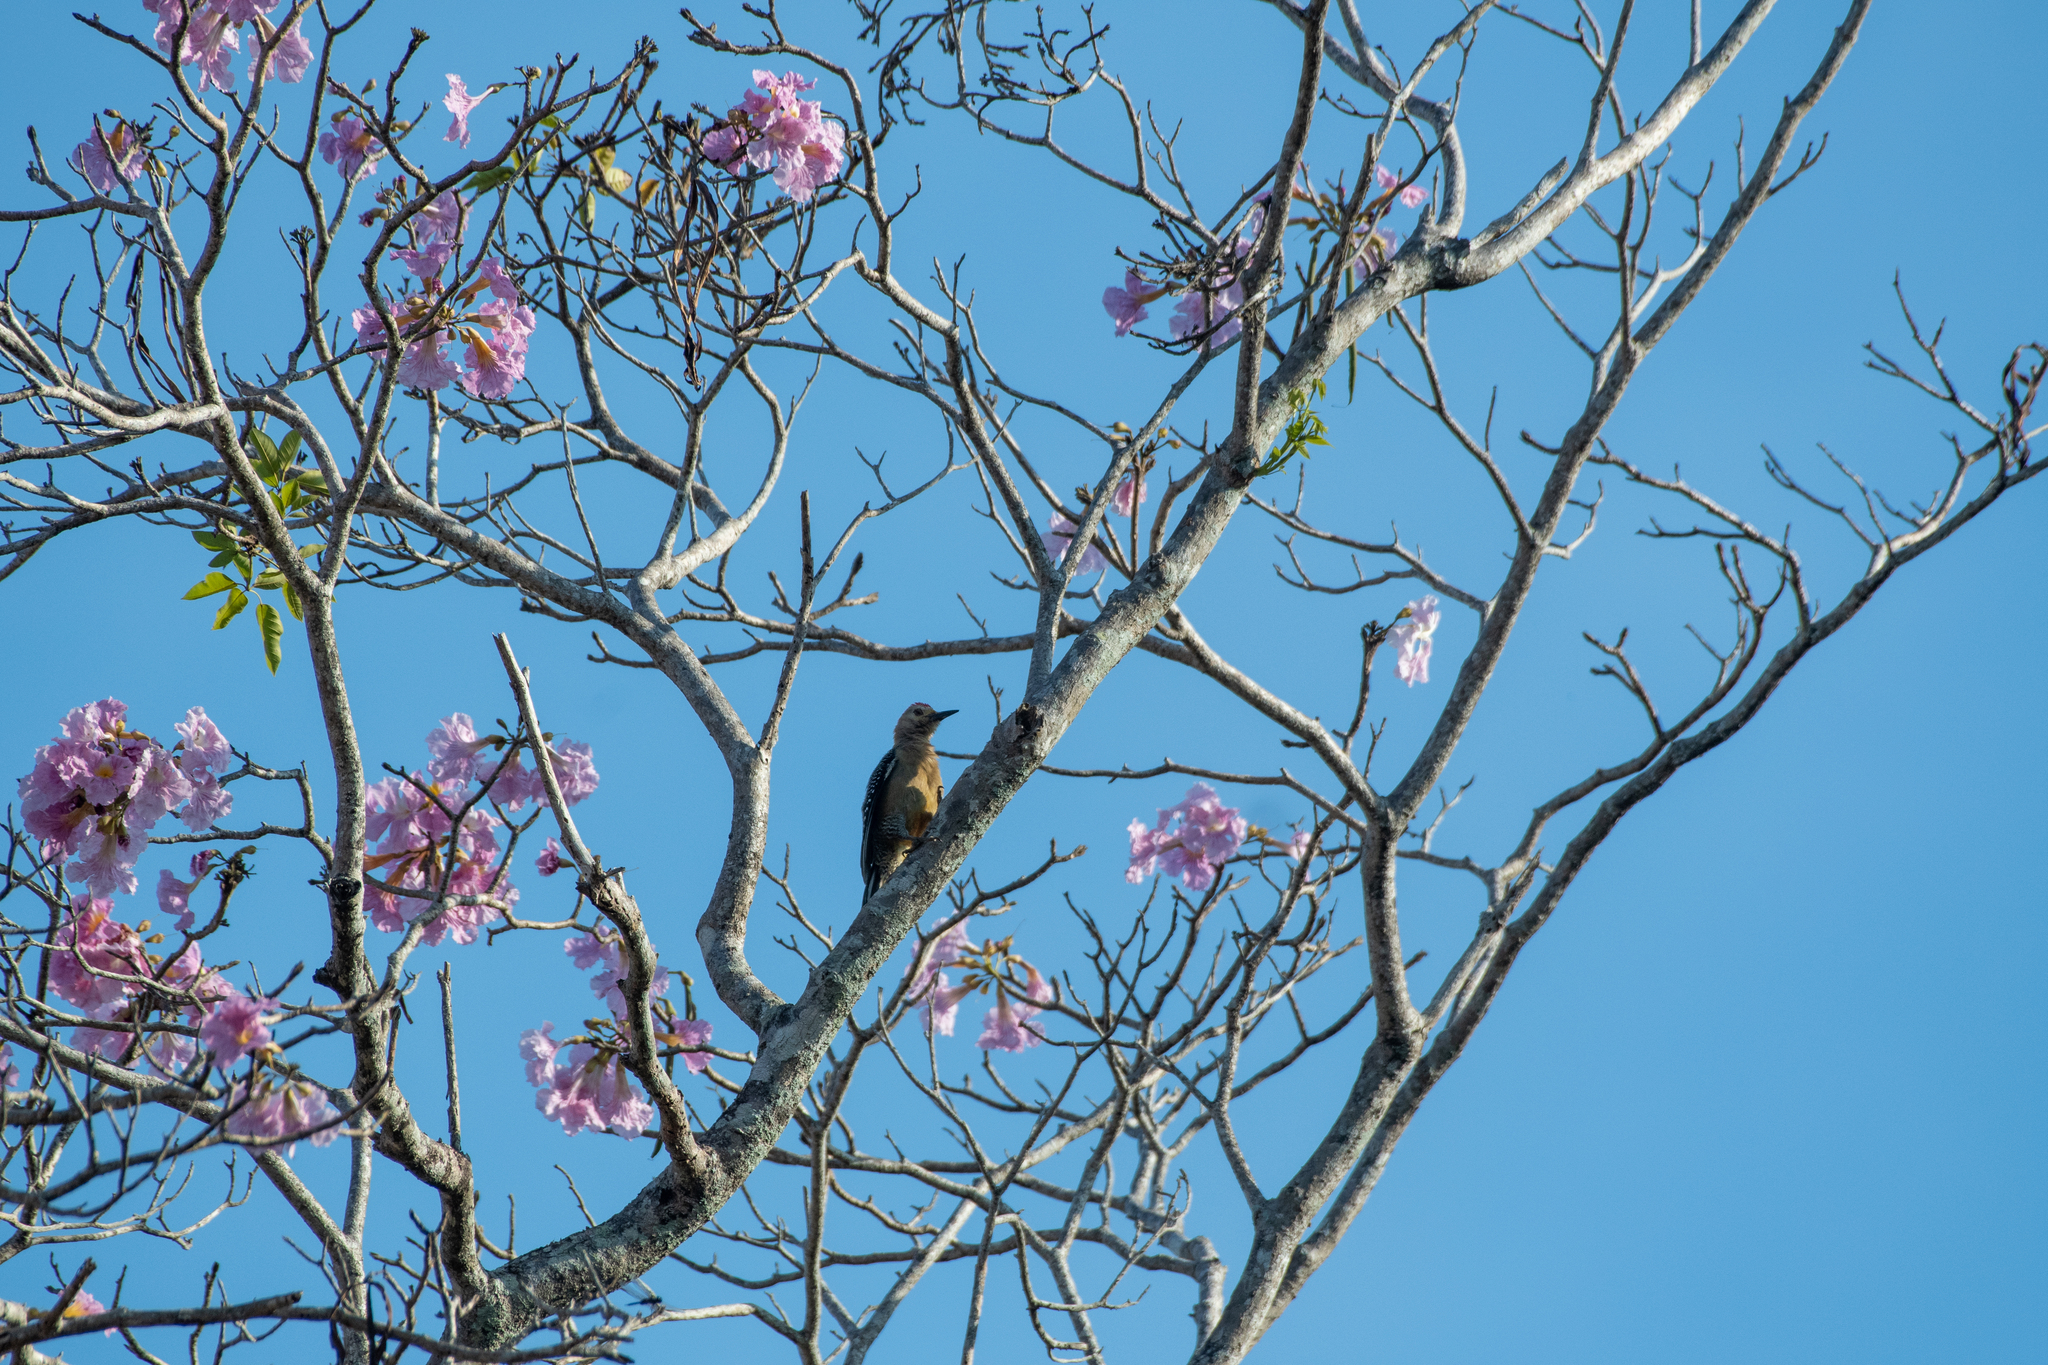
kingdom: Animalia
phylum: Chordata
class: Aves
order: Piciformes
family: Picidae
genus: Melanerpes
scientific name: Melanerpes santacruzi
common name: Velasquez's woodpecker
